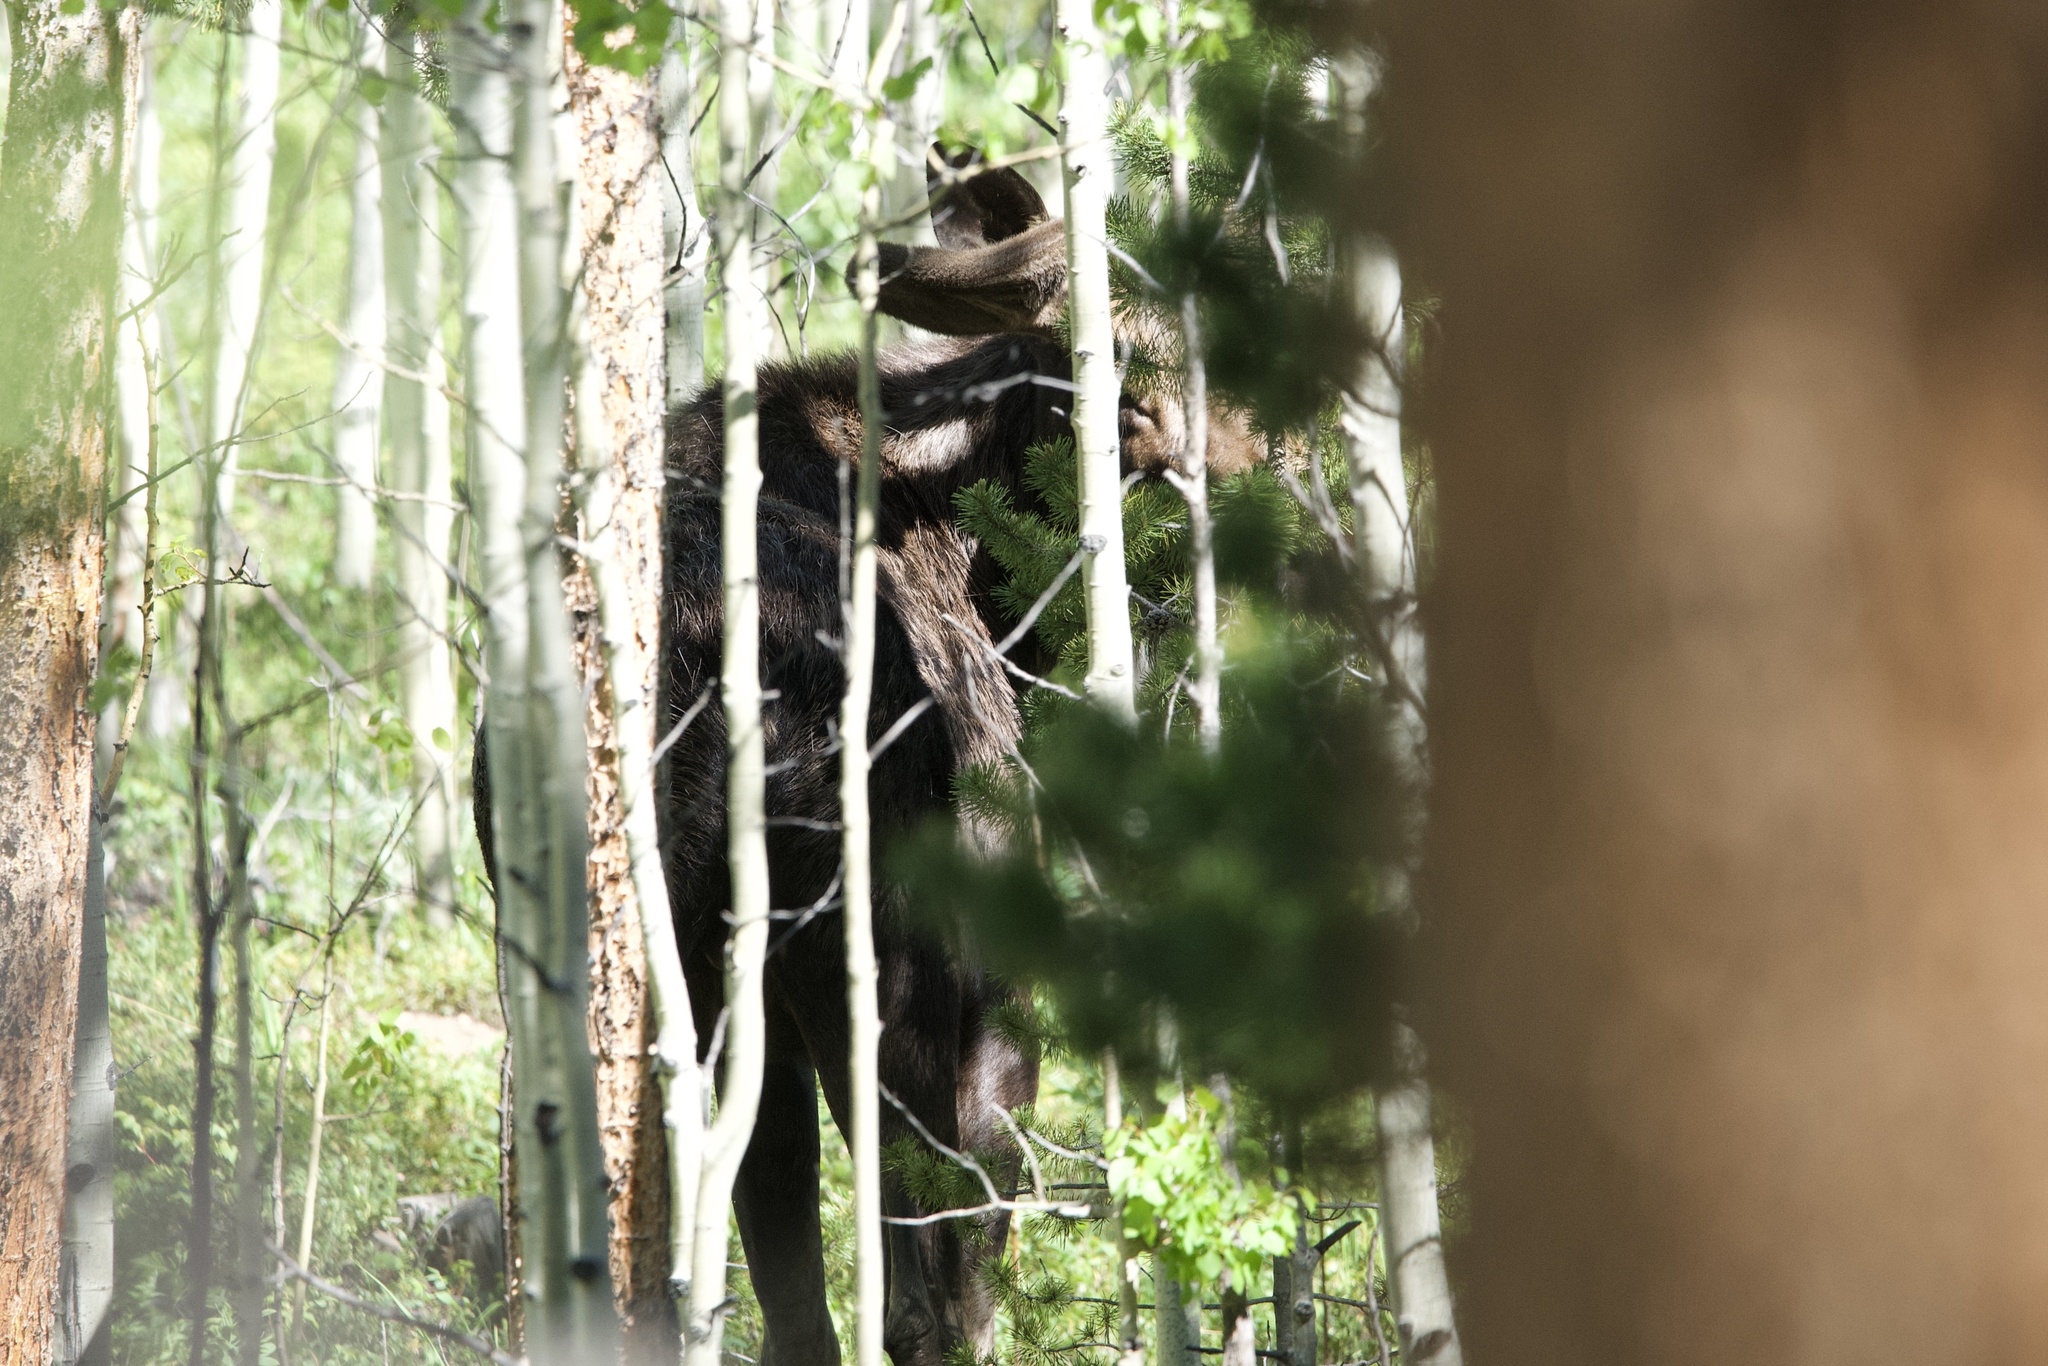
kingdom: Animalia
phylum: Chordata
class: Mammalia
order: Artiodactyla
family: Cervidae
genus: Alces
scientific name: Alces alces
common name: Moose
